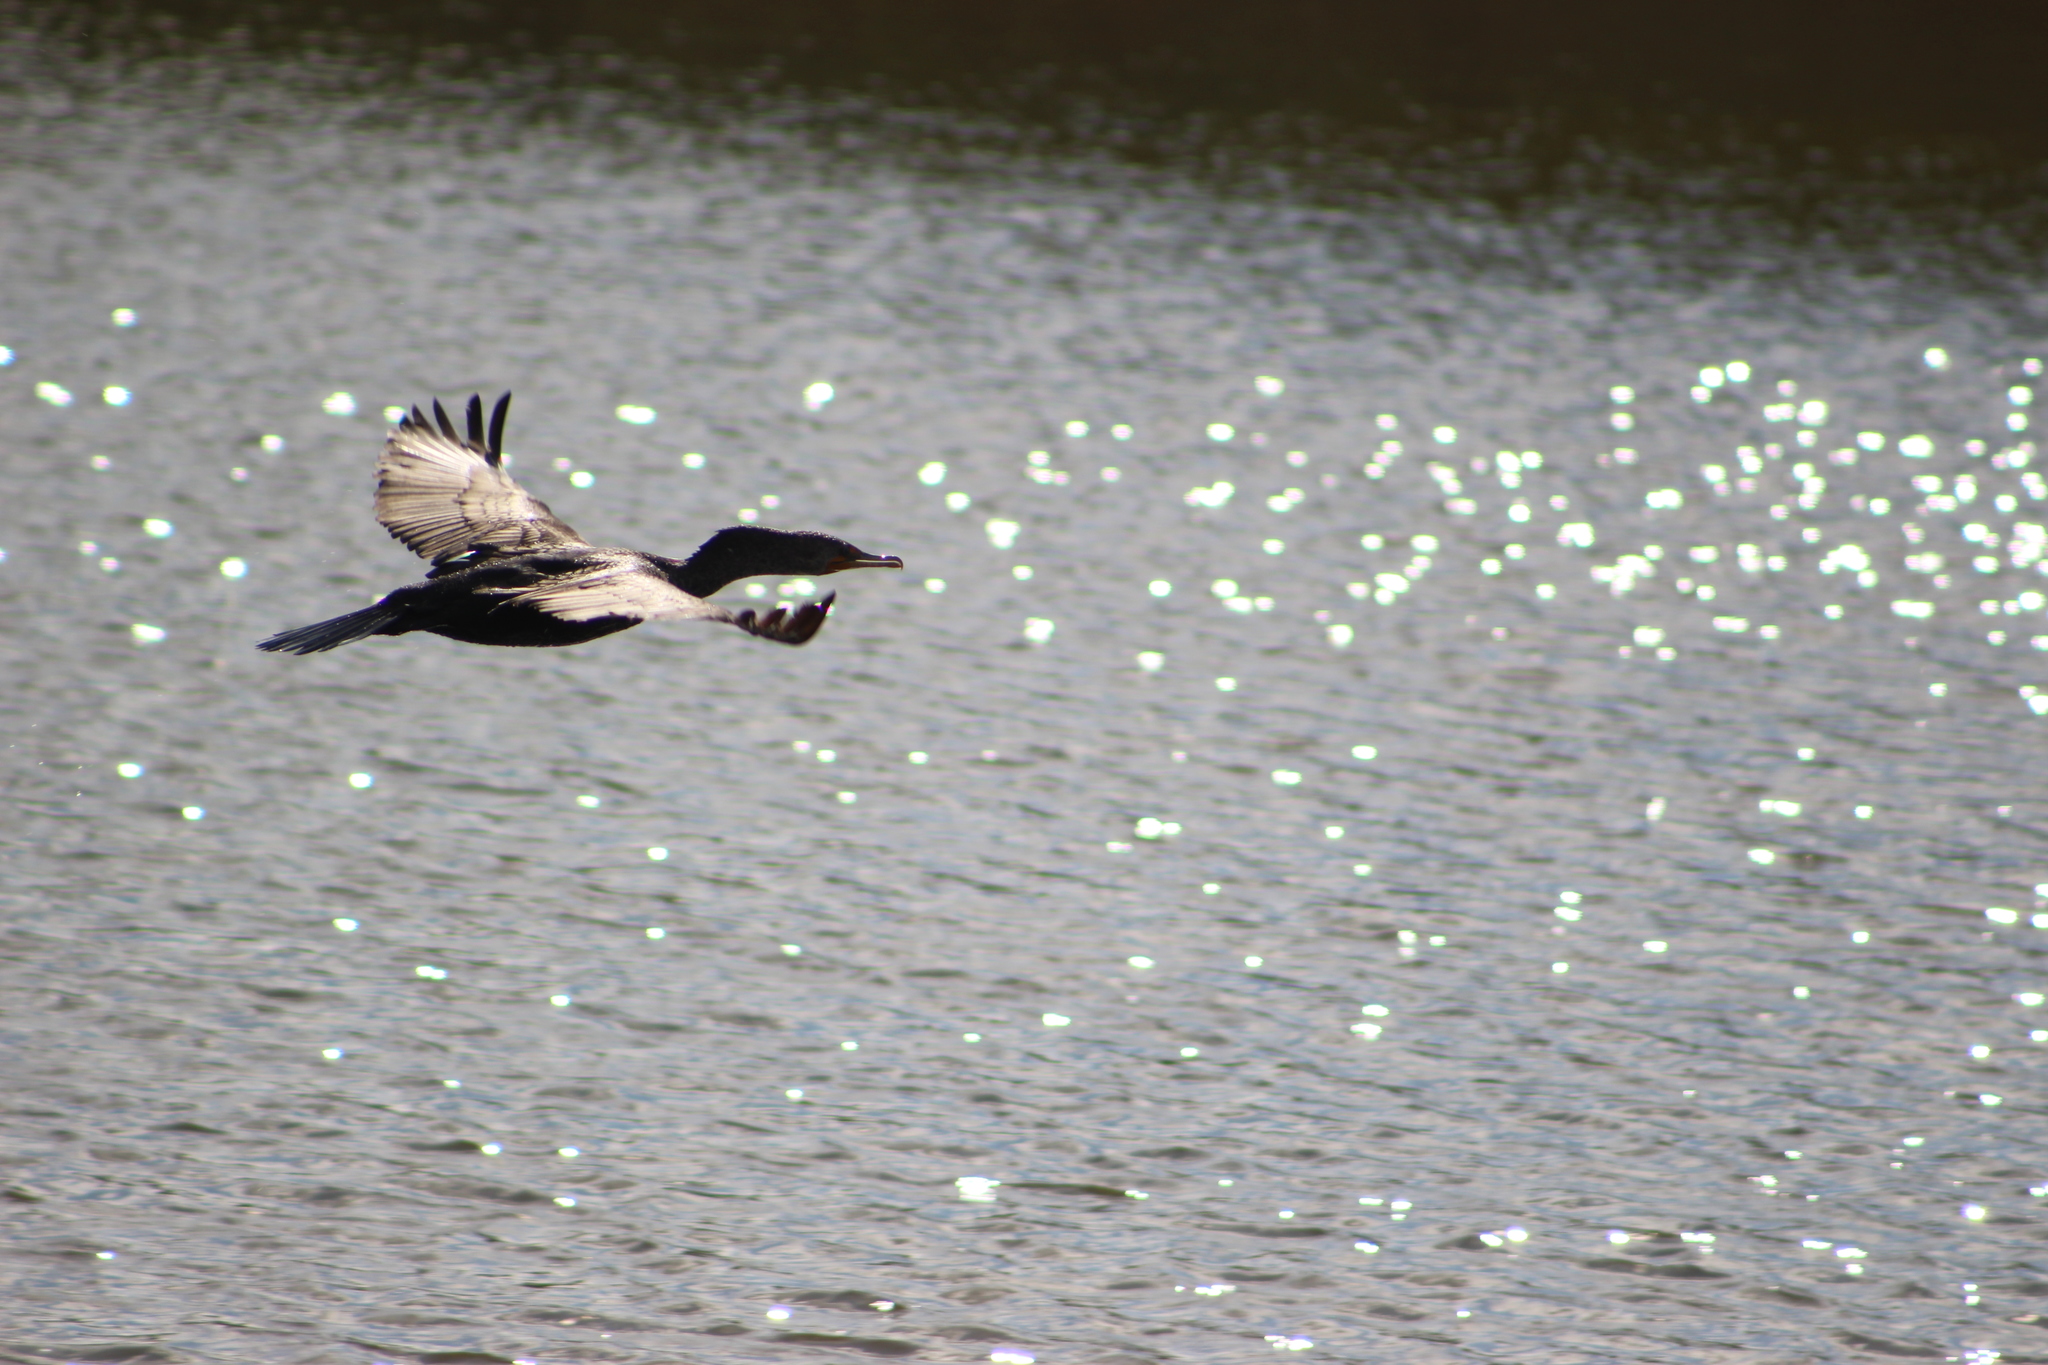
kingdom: Animalia
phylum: Chordata
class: Aves
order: Suliformes
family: Phalacrocoracidae
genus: Phalacrocorax
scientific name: Phalacrocorax auritus
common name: Double-crested cormorant
